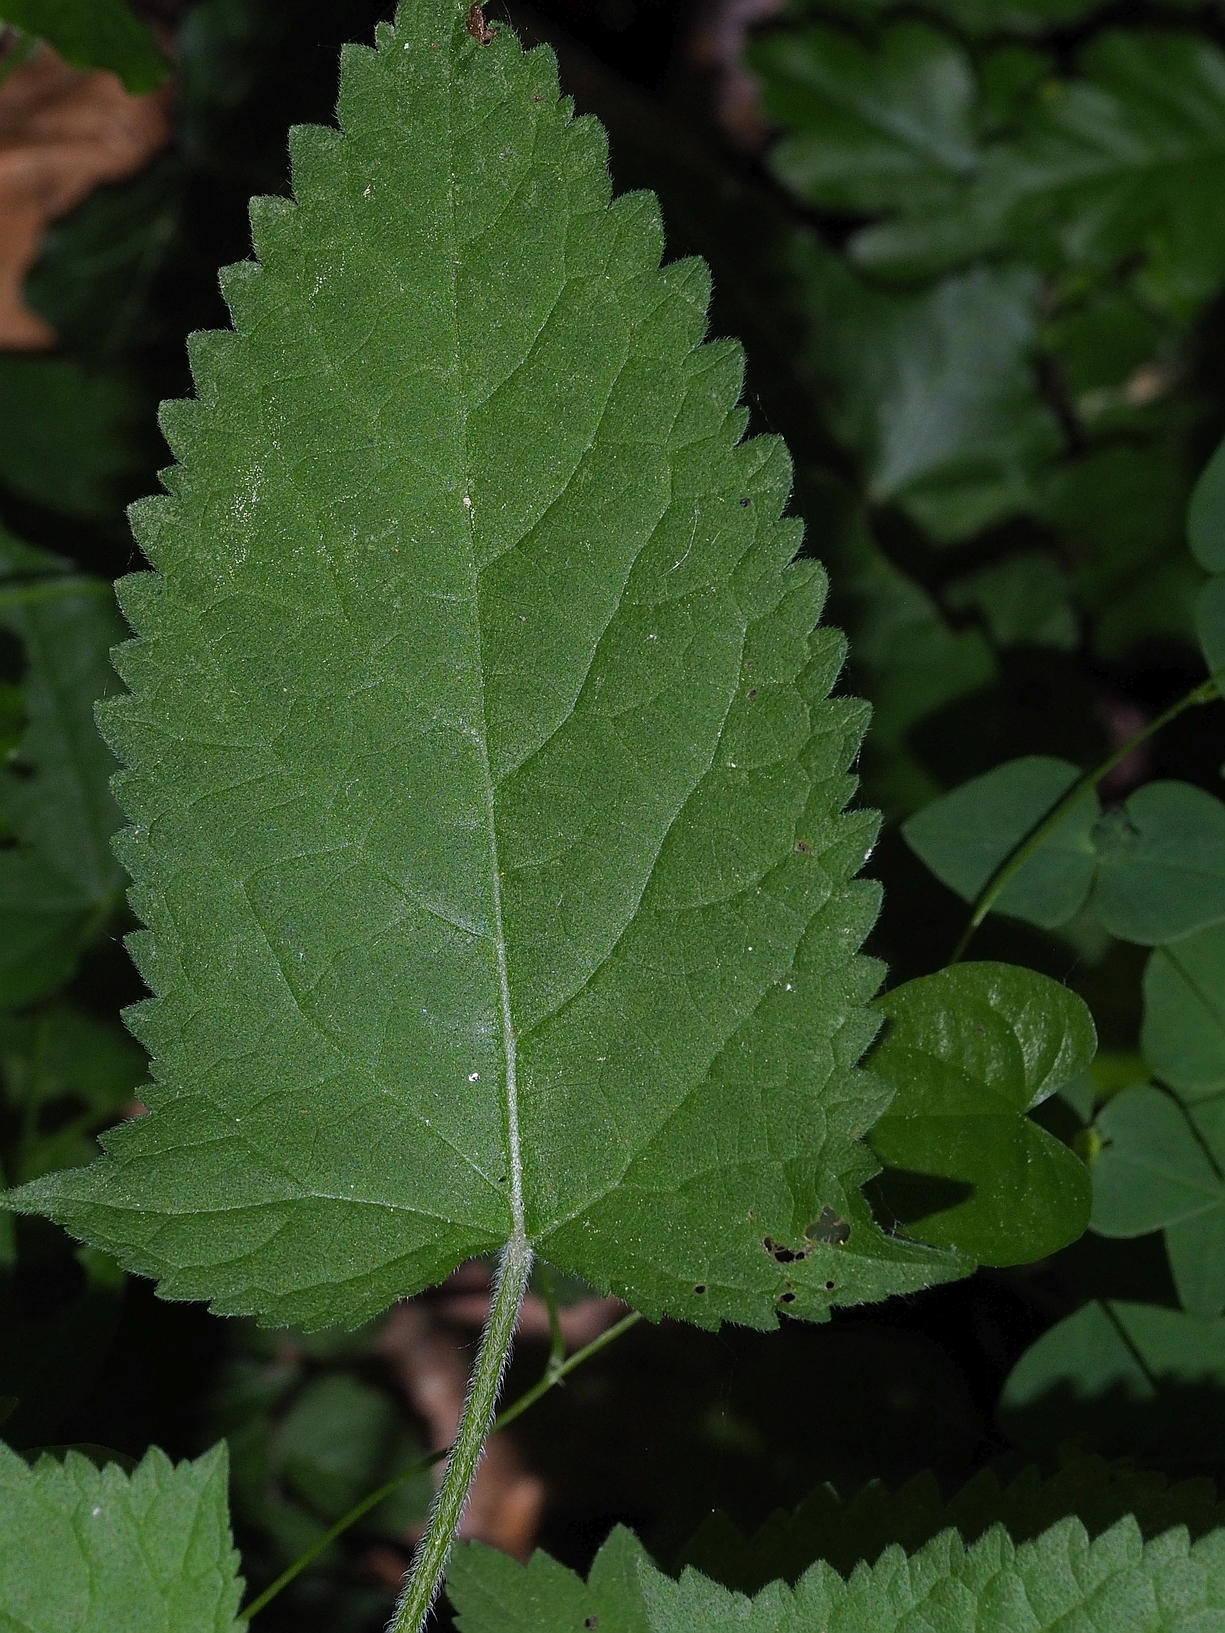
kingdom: Plantae
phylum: Tracheophyta
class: Magnoliopsida
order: Lamiales
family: Lamiaceae
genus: Salvia
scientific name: Salvia glutinosa
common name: Sticky clary
